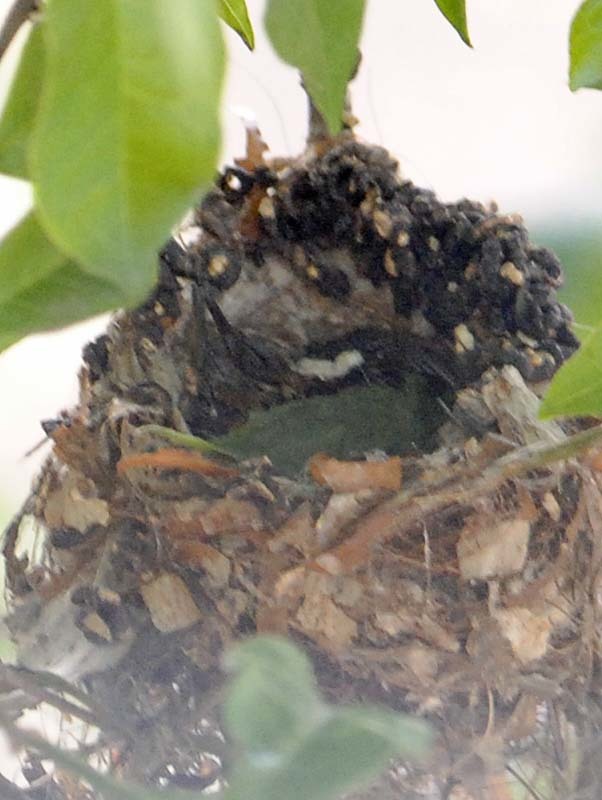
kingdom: Animalia
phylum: Chordata
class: Aves
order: Apodiformes
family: Trochilidae
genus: Cynanthus
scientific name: Cynanthus latirostris
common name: Broad-billed hummingbird
